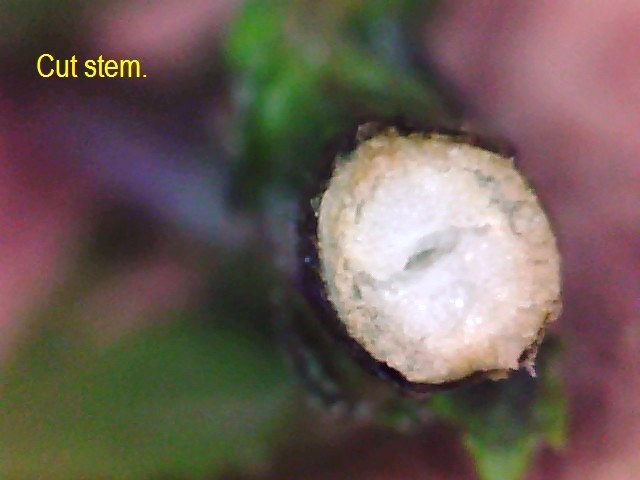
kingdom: Plantae
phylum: Tracheophyta
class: Magnoliopsida
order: Asterales
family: Asteraceae
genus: Senecio
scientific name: Senecio minimus
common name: Toothed fireweed
